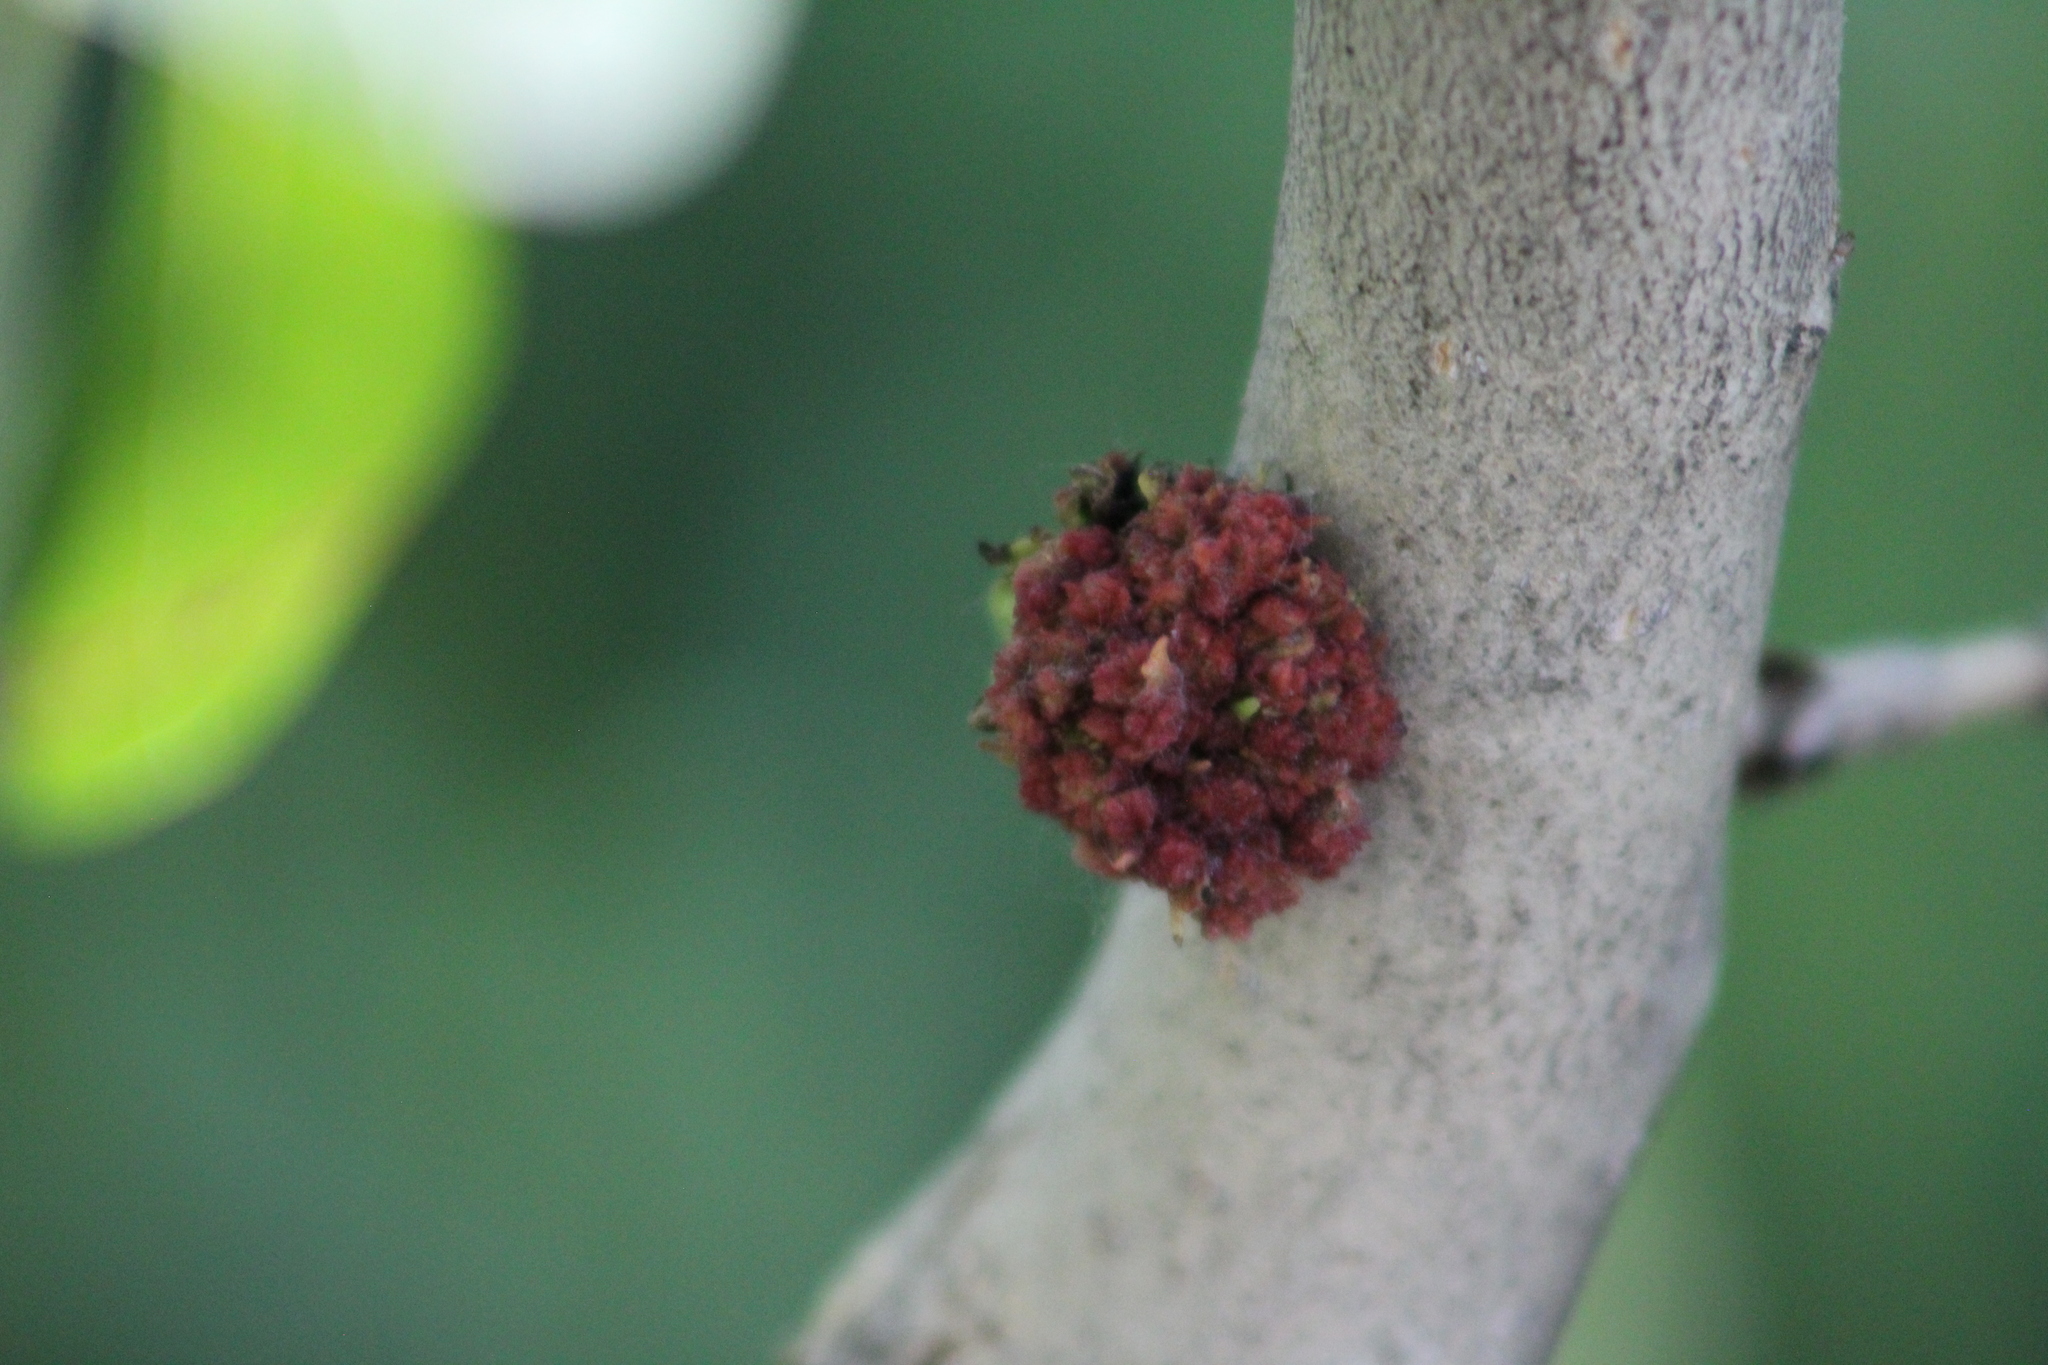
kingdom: Animalia
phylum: Arthropoda
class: Arachnida
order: Trombidiformes
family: Eriophyidae
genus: Aceria
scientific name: Aceria
